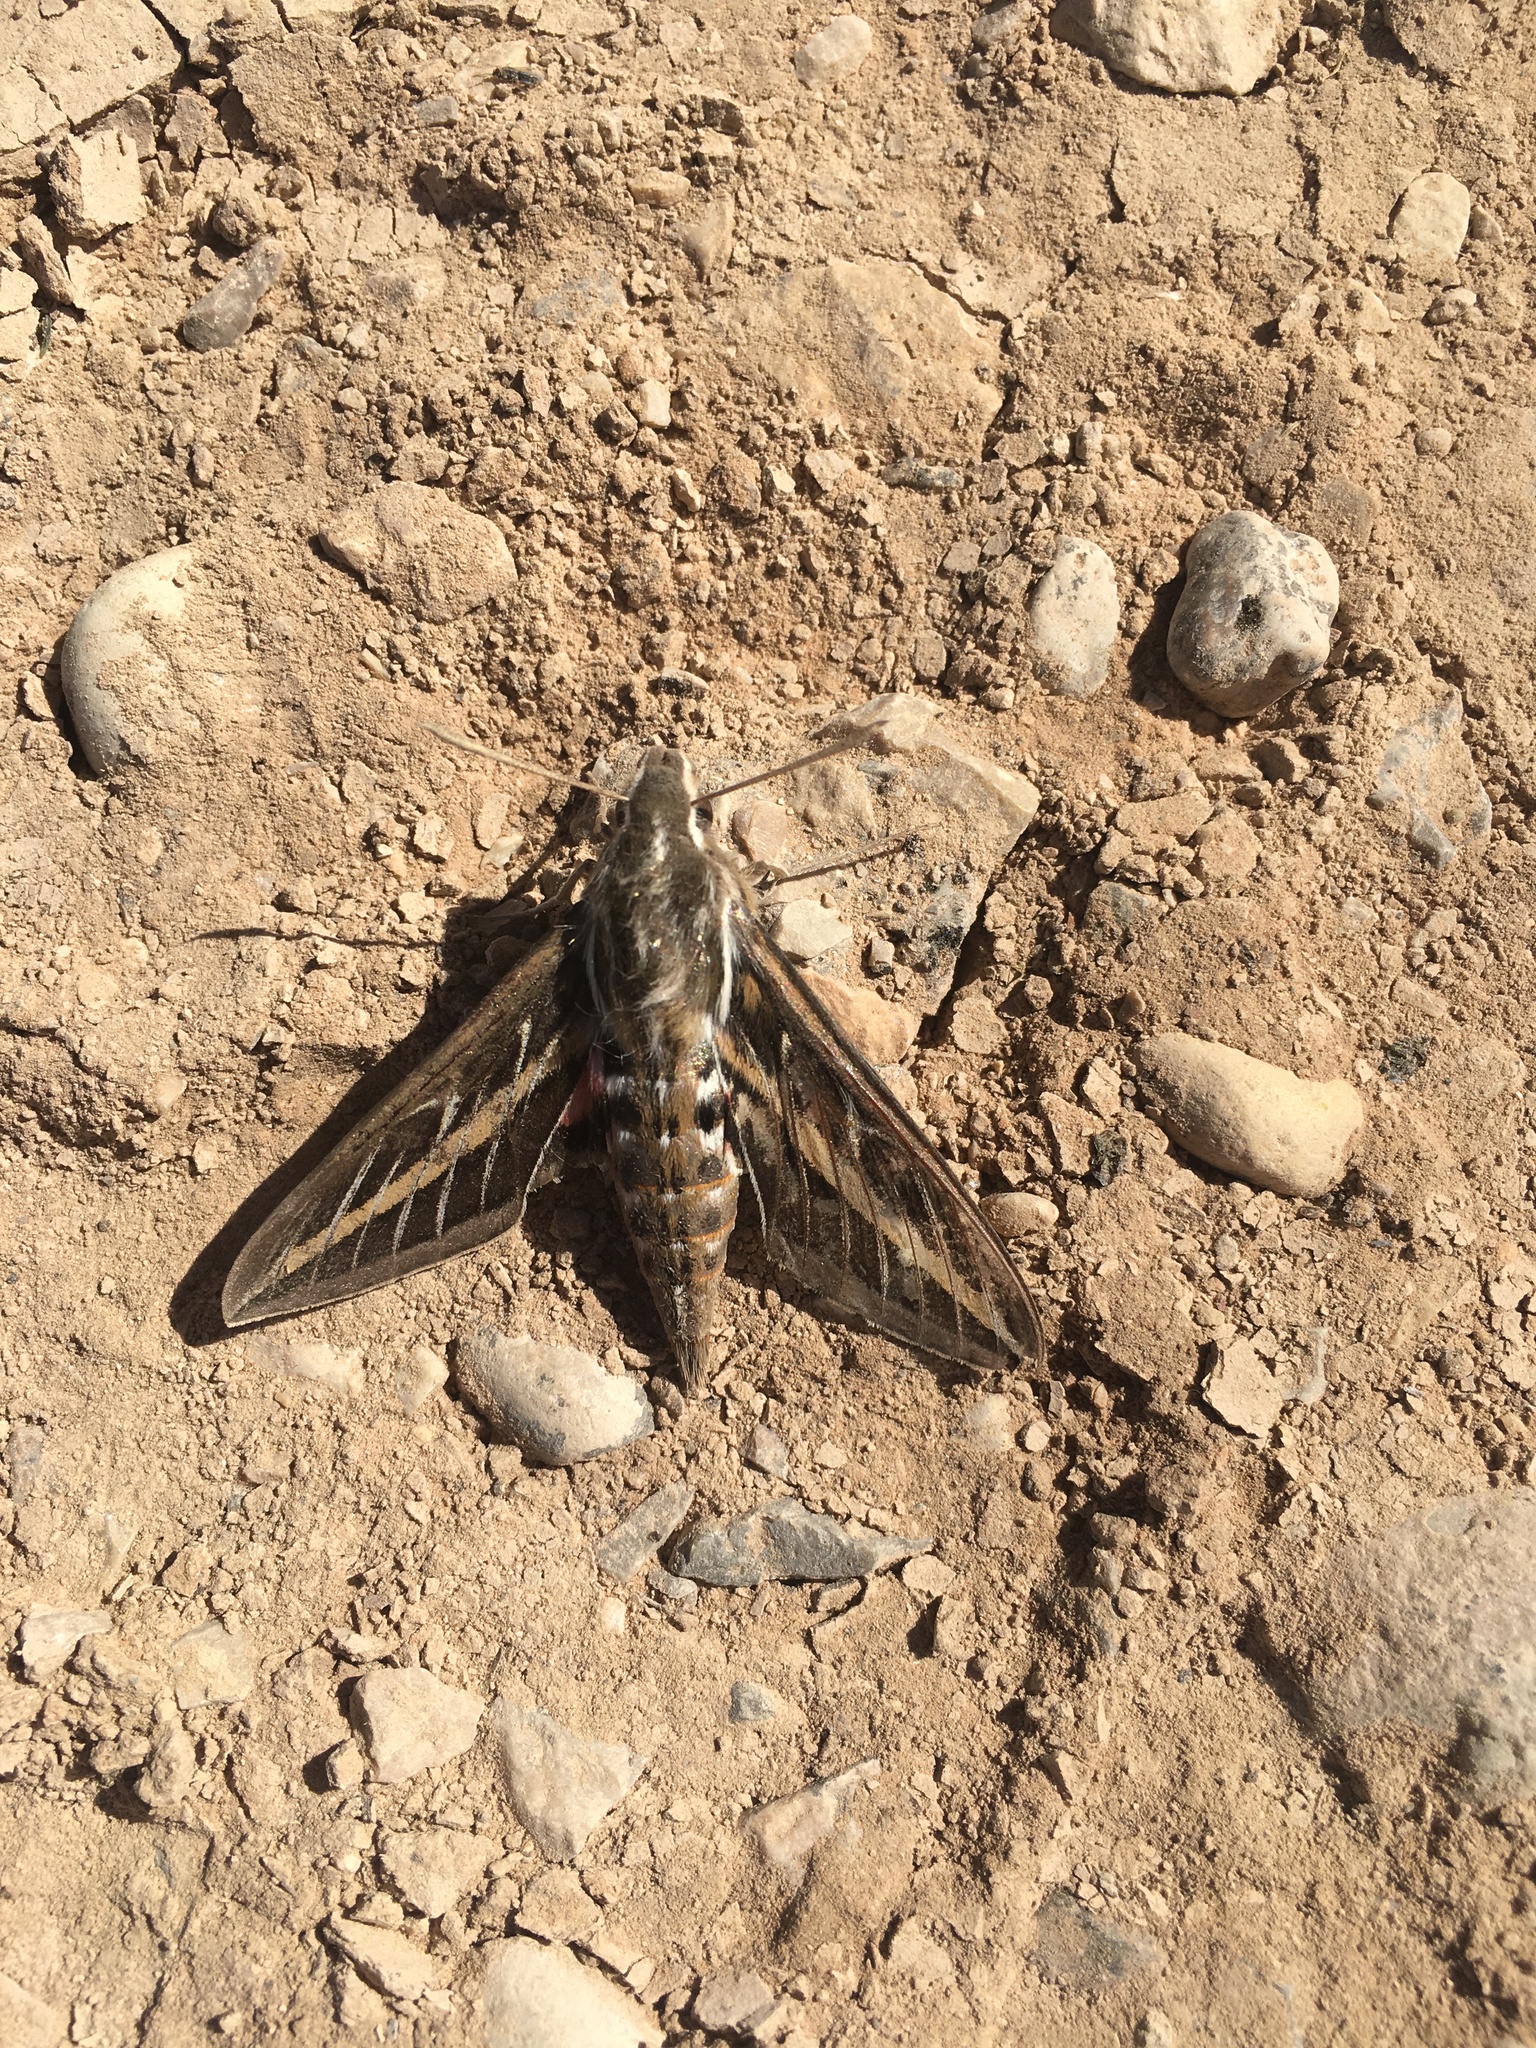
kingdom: Animalia
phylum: Arthropoda
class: Insecta
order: Lepidoptera
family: Sphingidae
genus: Hyles
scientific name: Hyles lineata
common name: White-lined sphinx
